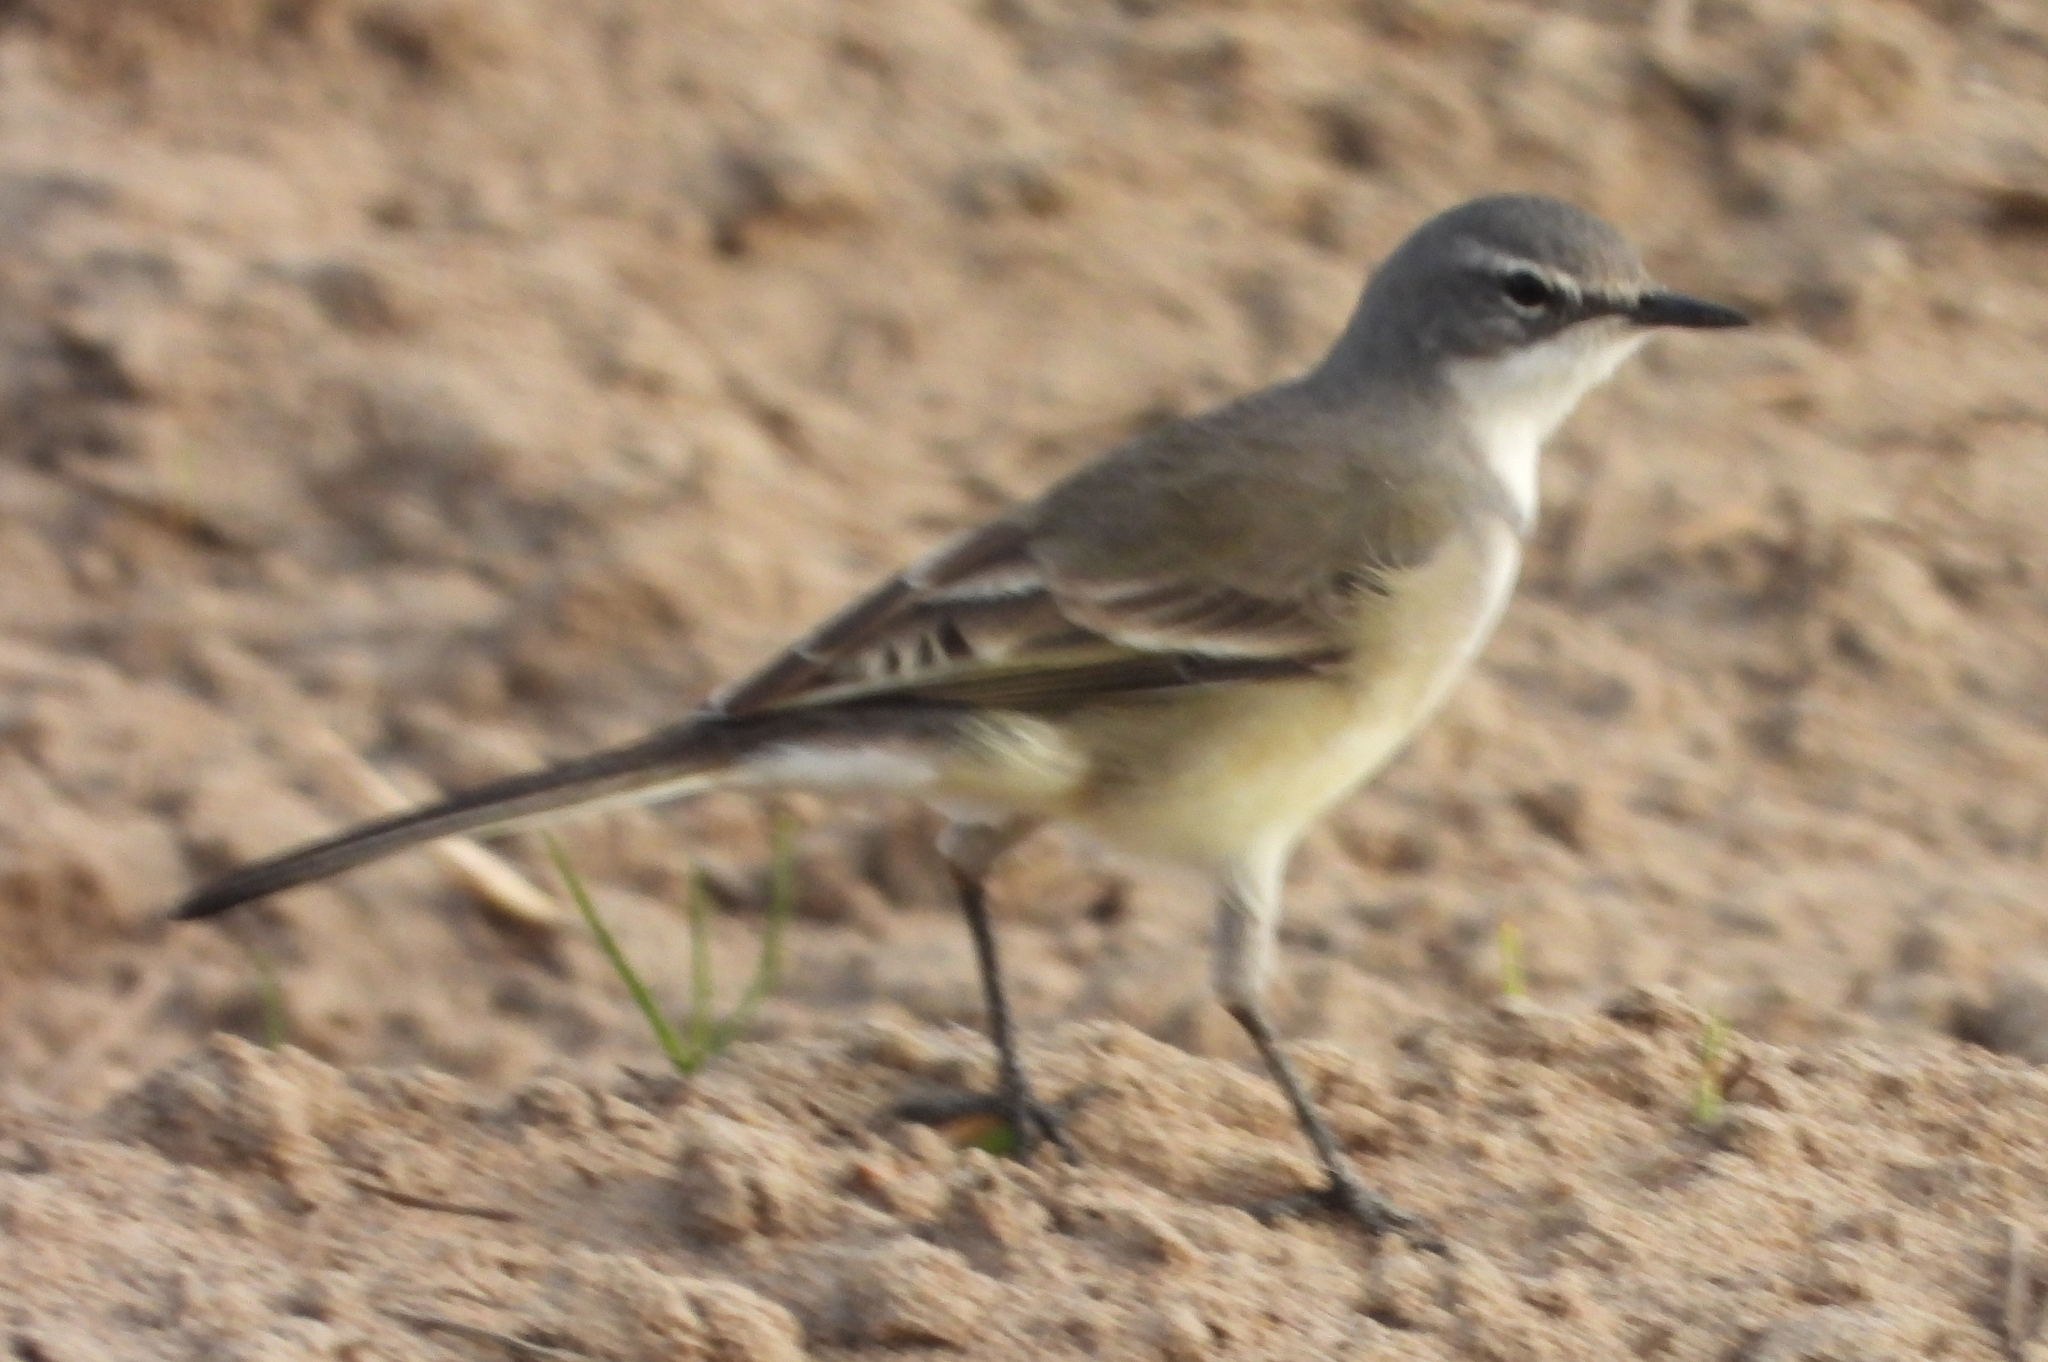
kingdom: Animalia
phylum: Chordata
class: Aves
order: Passeriformes
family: Motacillidae
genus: Motacilla
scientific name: Motacilla capensis
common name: Cape wagtail
